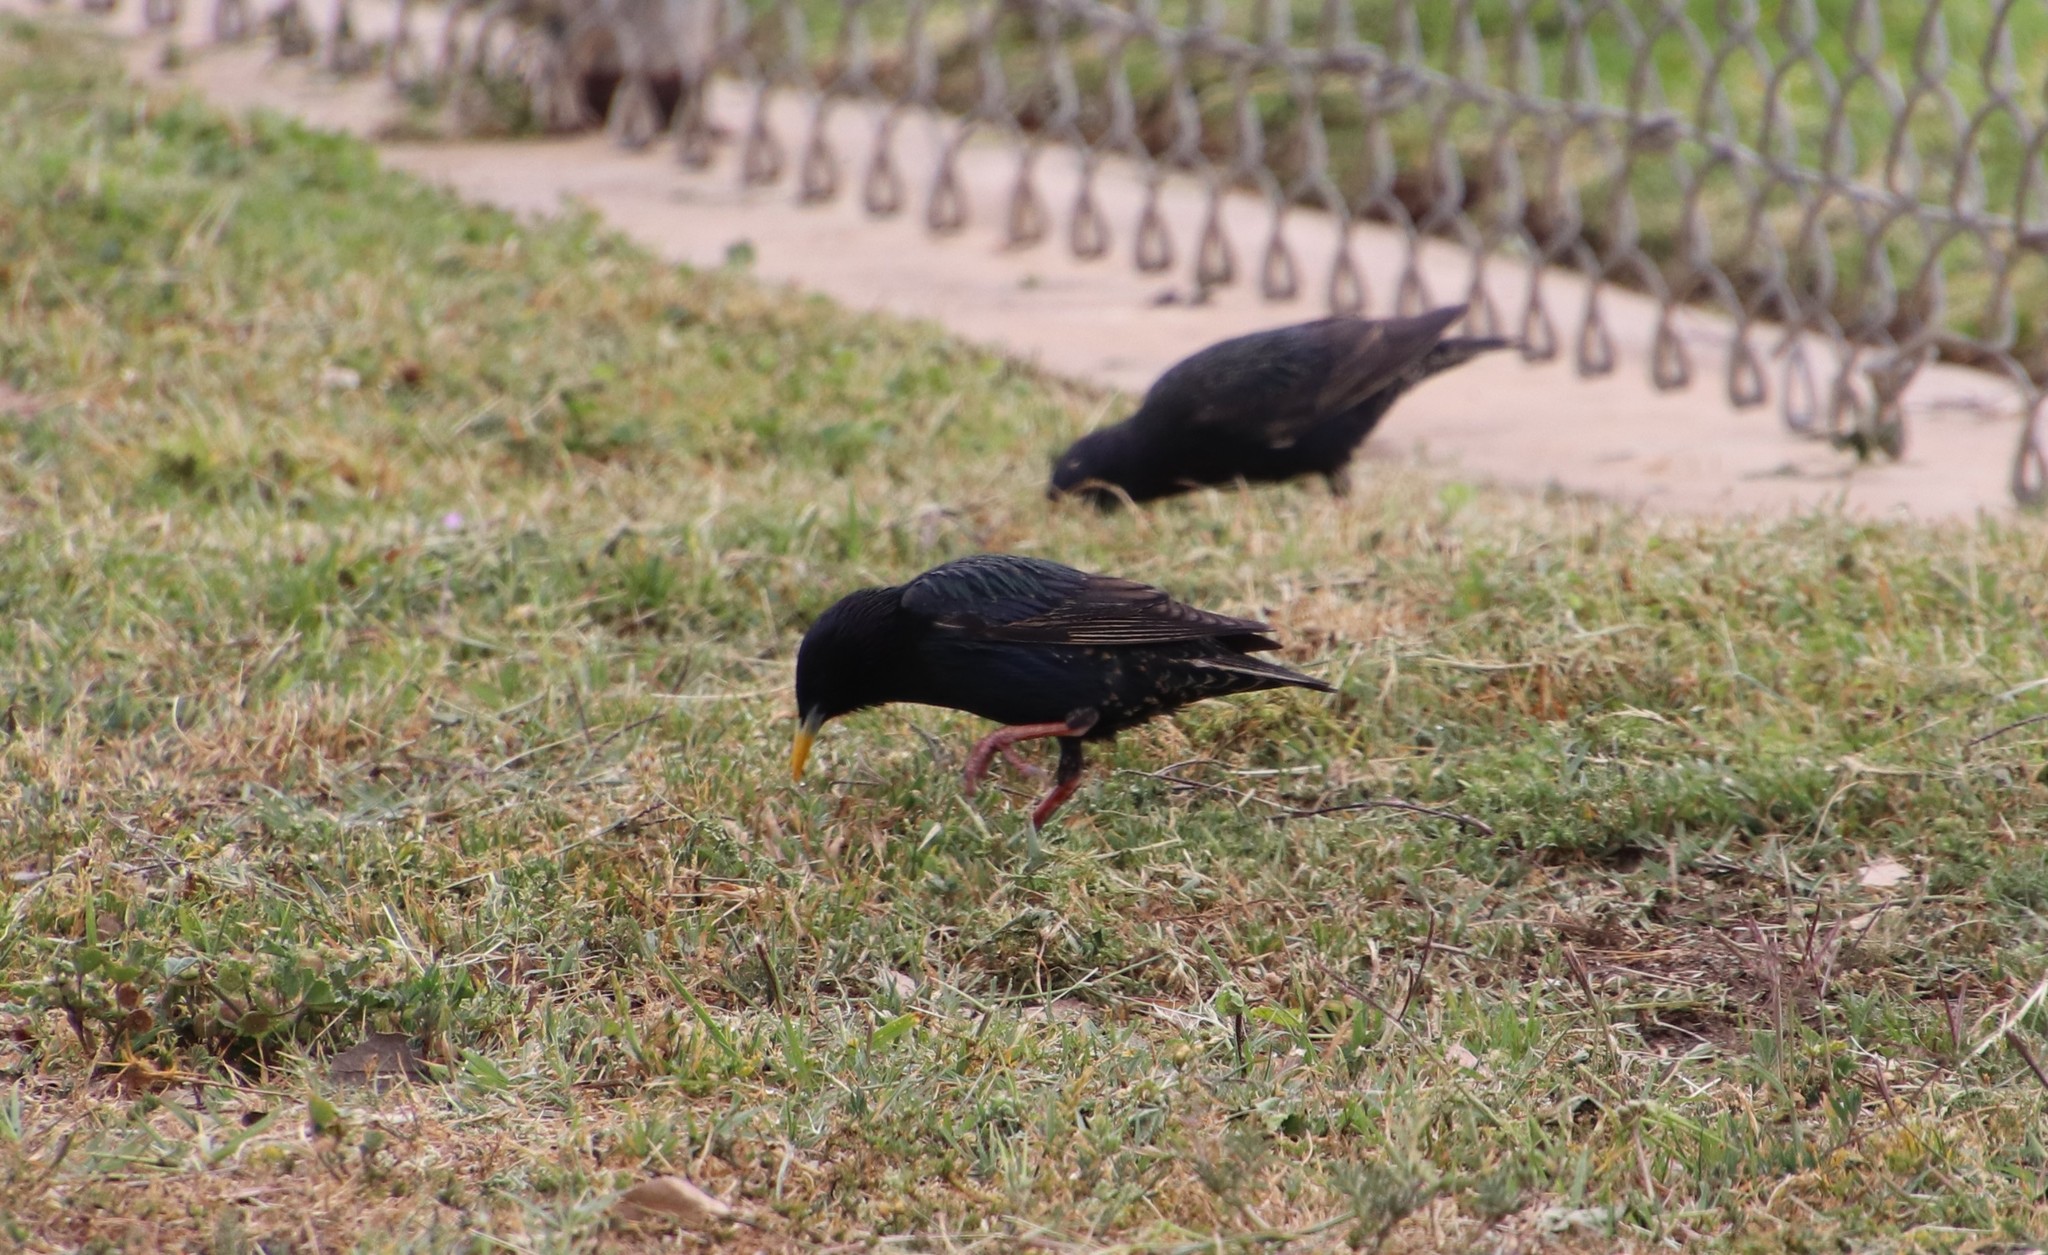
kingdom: Animalia
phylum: Chordata
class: Aves
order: Passeriformes
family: Sturnidae
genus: Sturnus
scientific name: Sturnus vulgaris
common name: Common starling
